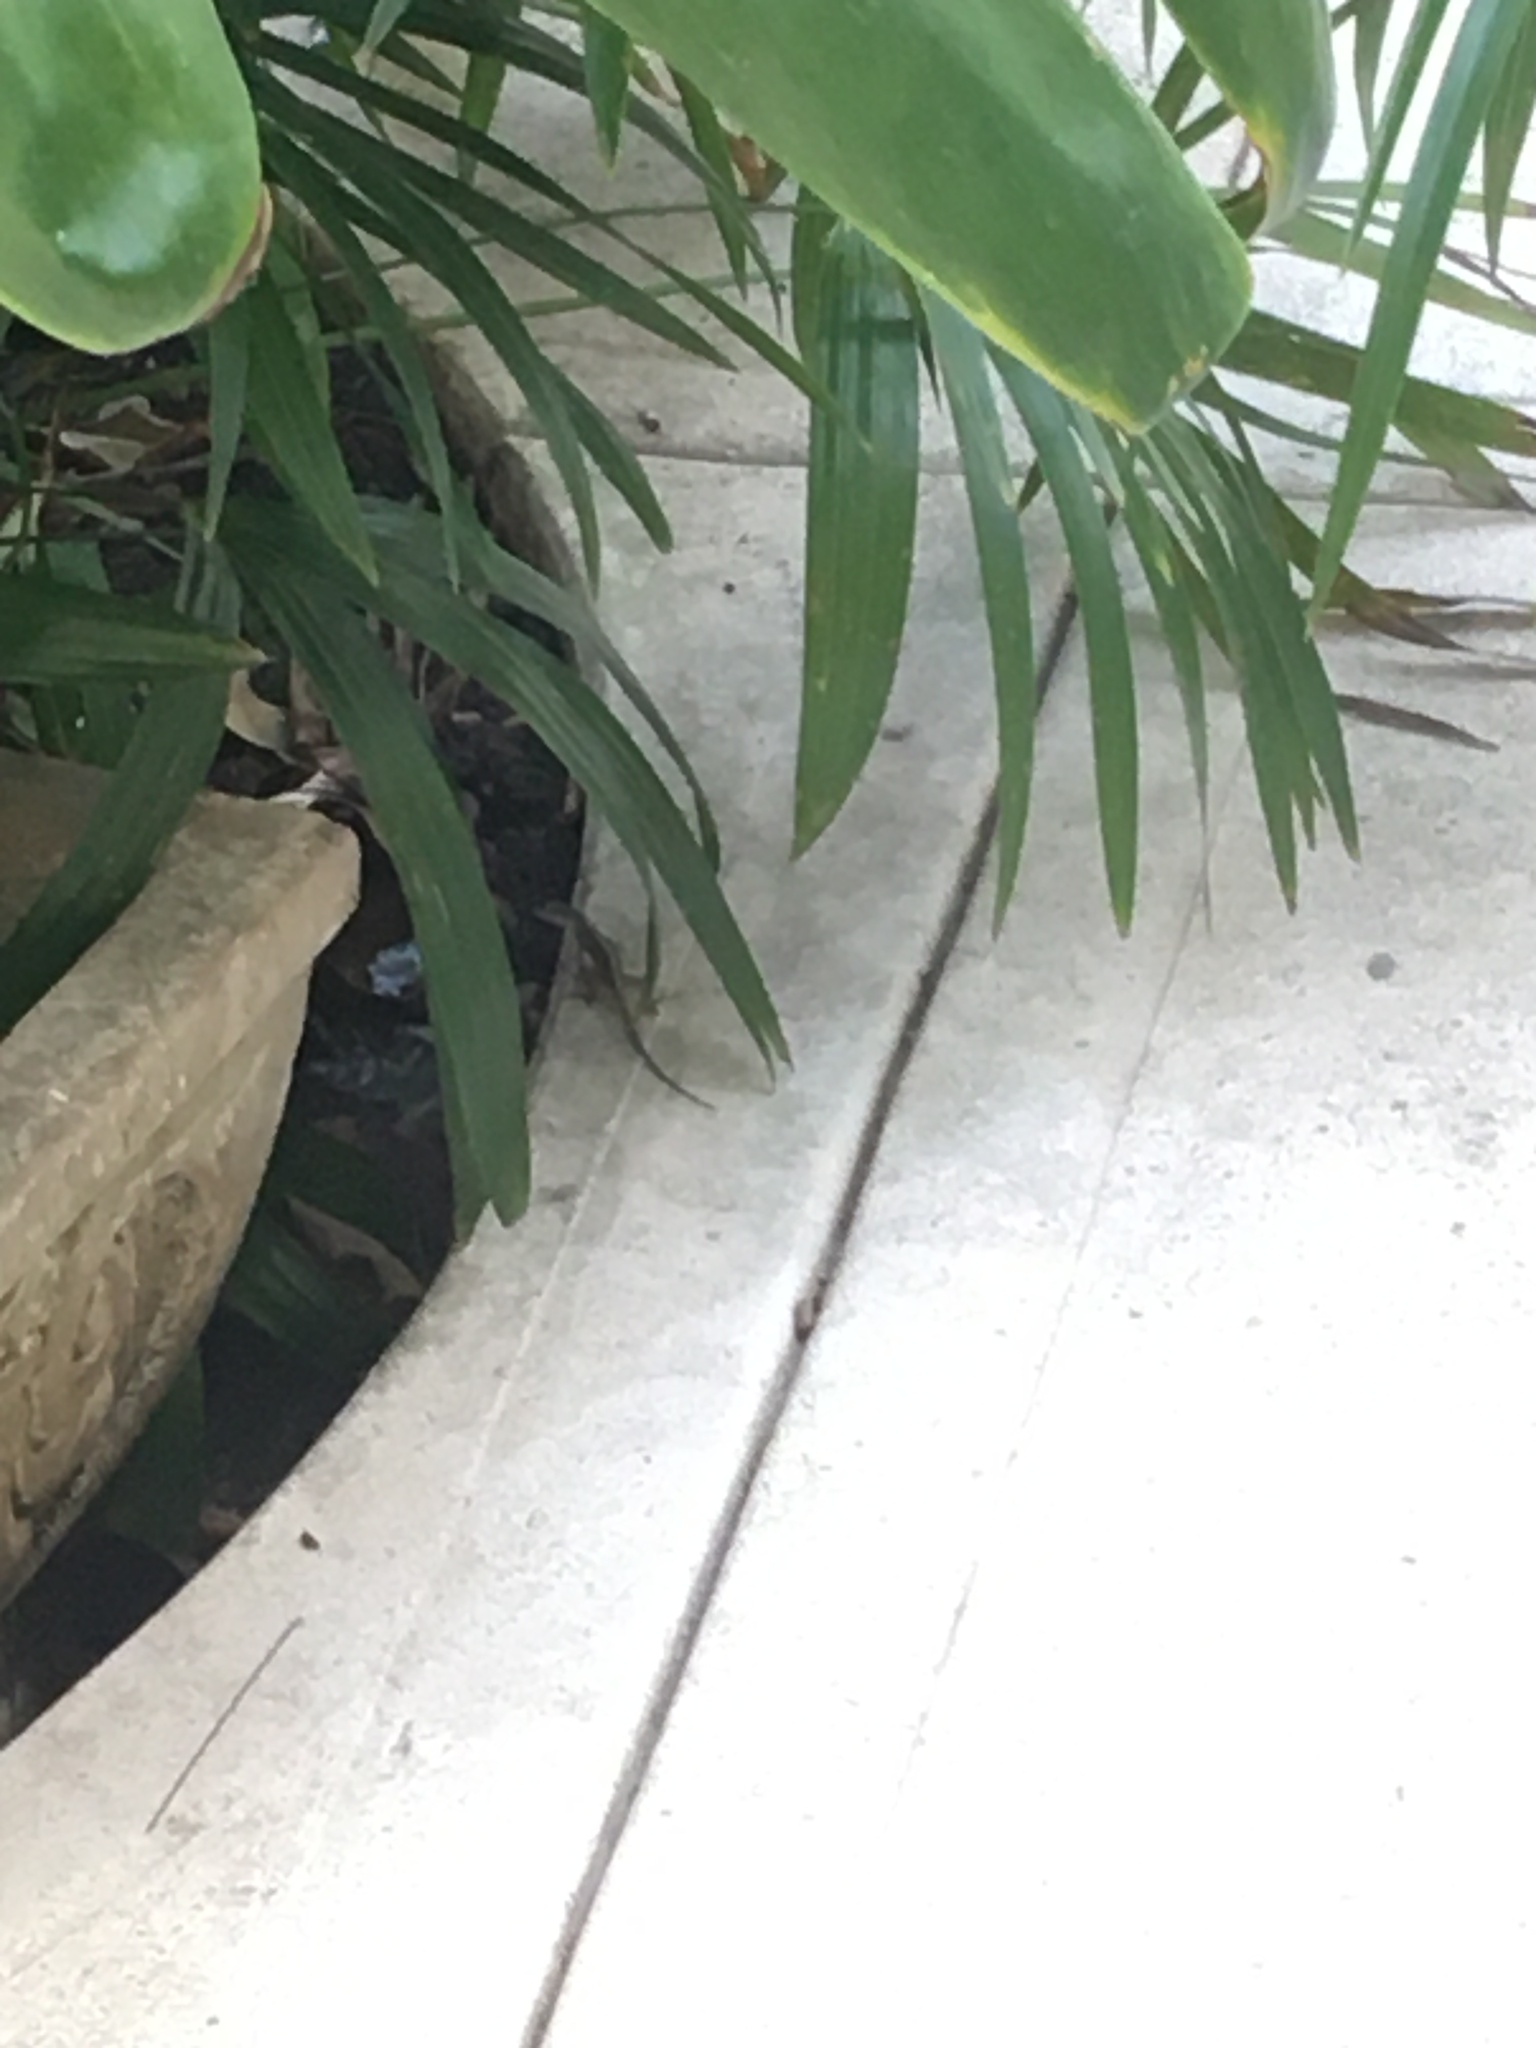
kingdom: Animalia
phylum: Chordata
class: Squamata
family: Dactyloidae
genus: Anolis
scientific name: Anolis sagrei
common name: Brown anole
